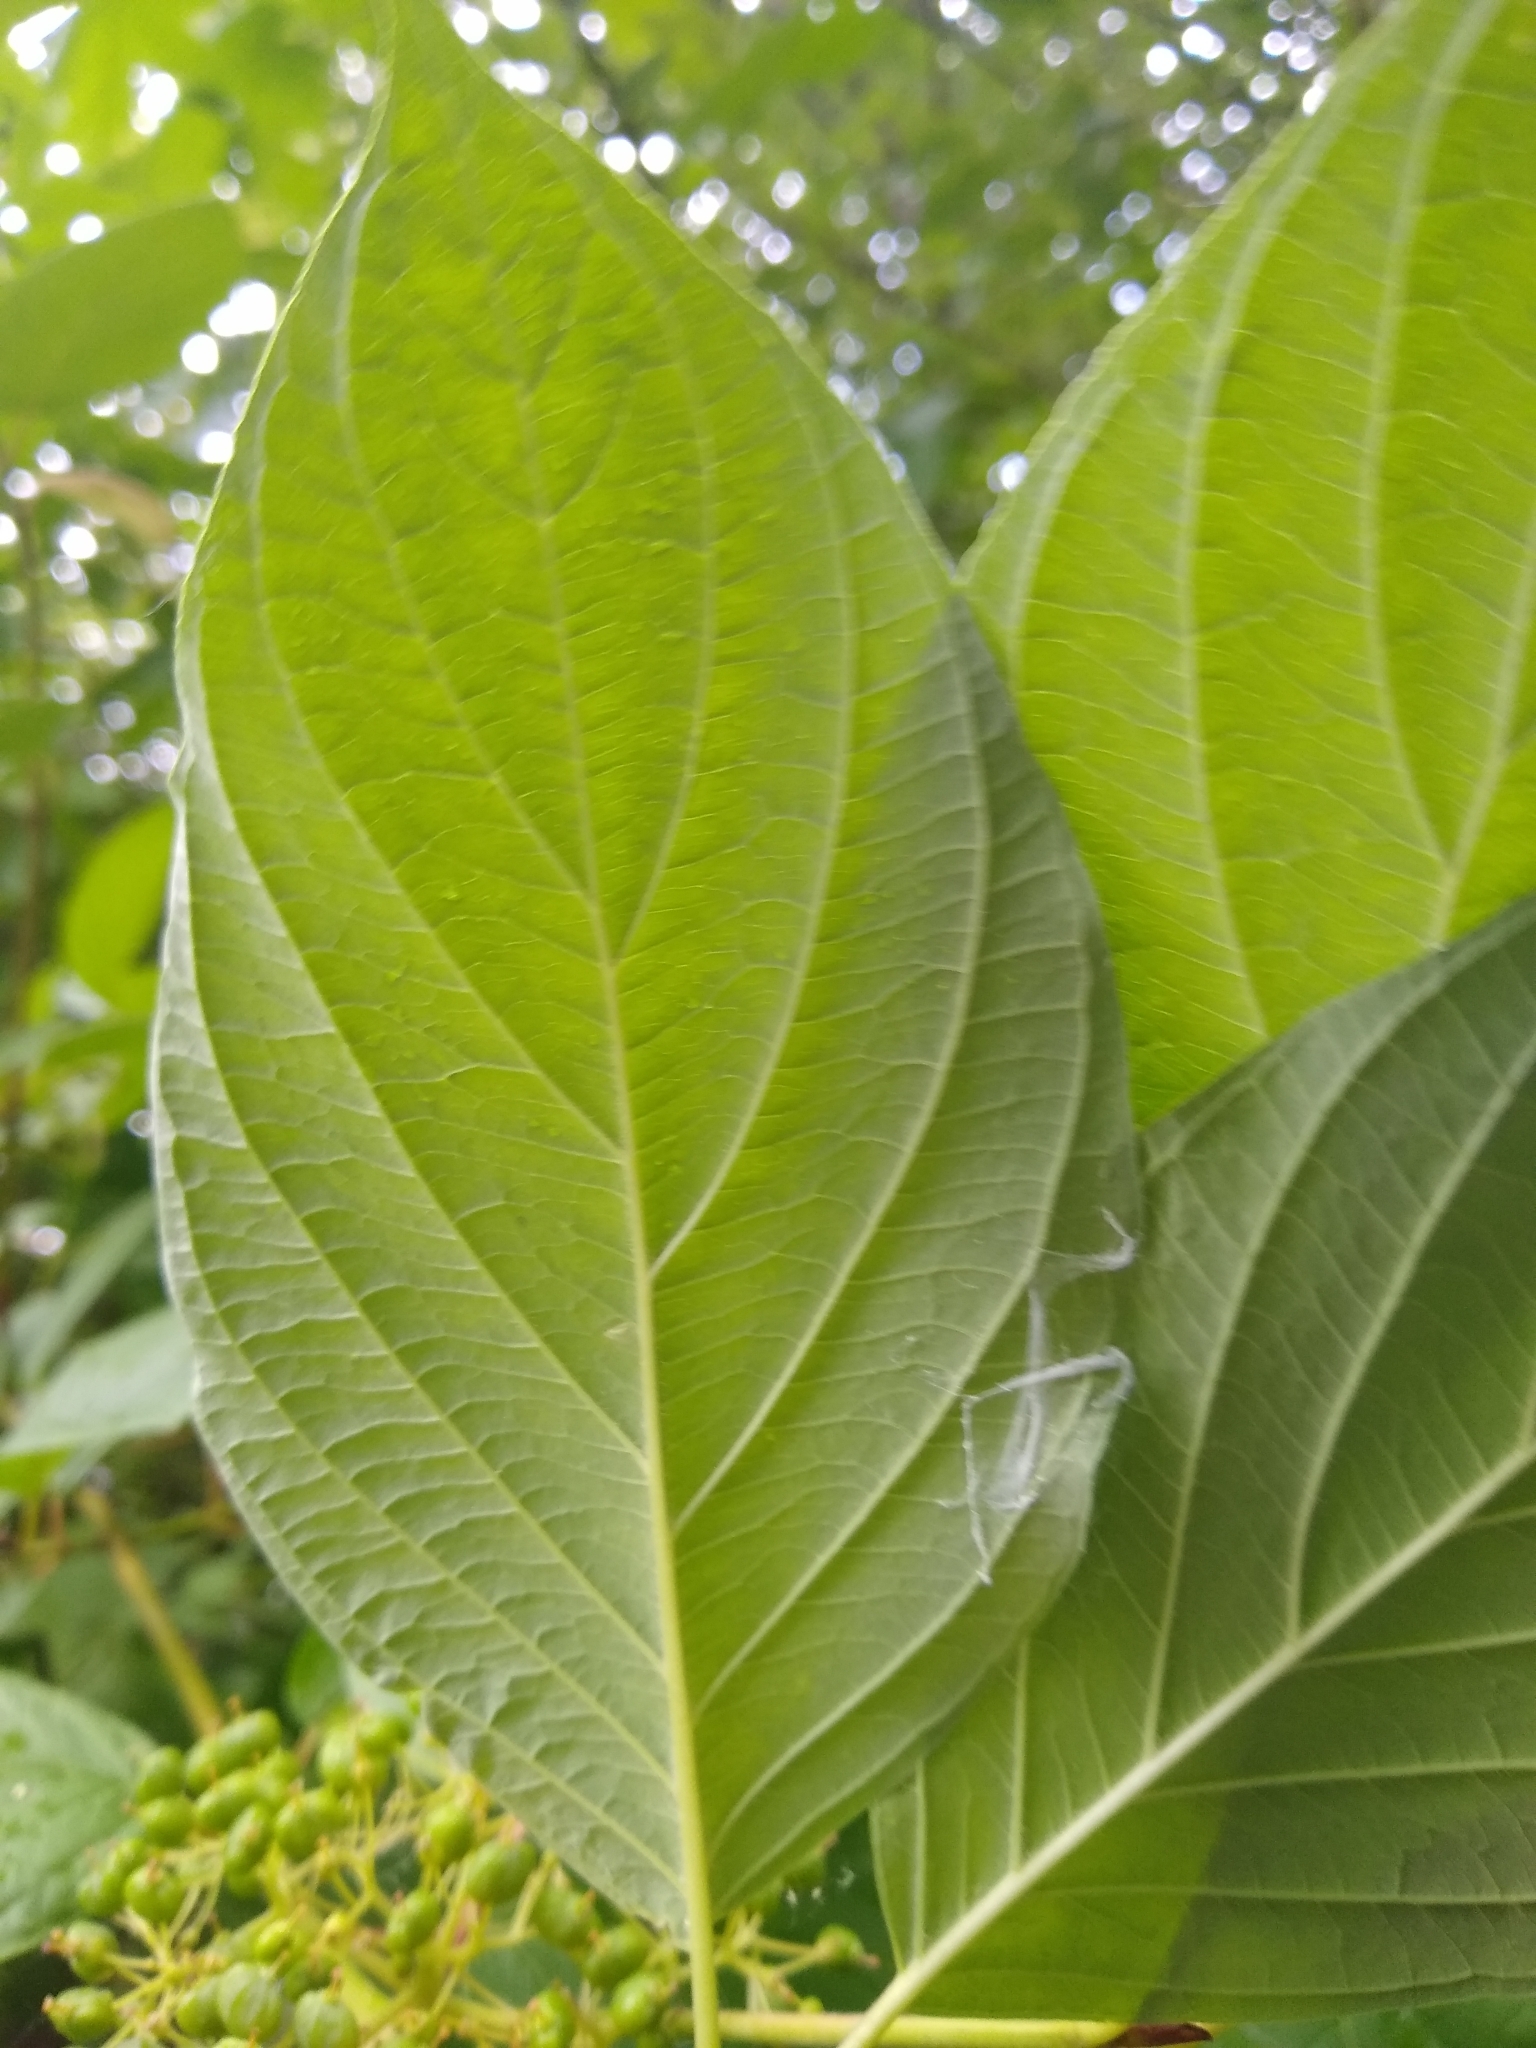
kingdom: Plantae
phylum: Tracheophyta
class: Magnoliopsida
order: Cornales
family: Cornaceae
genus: Cornus
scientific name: Cornus sericea
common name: Red-osier dogwood
